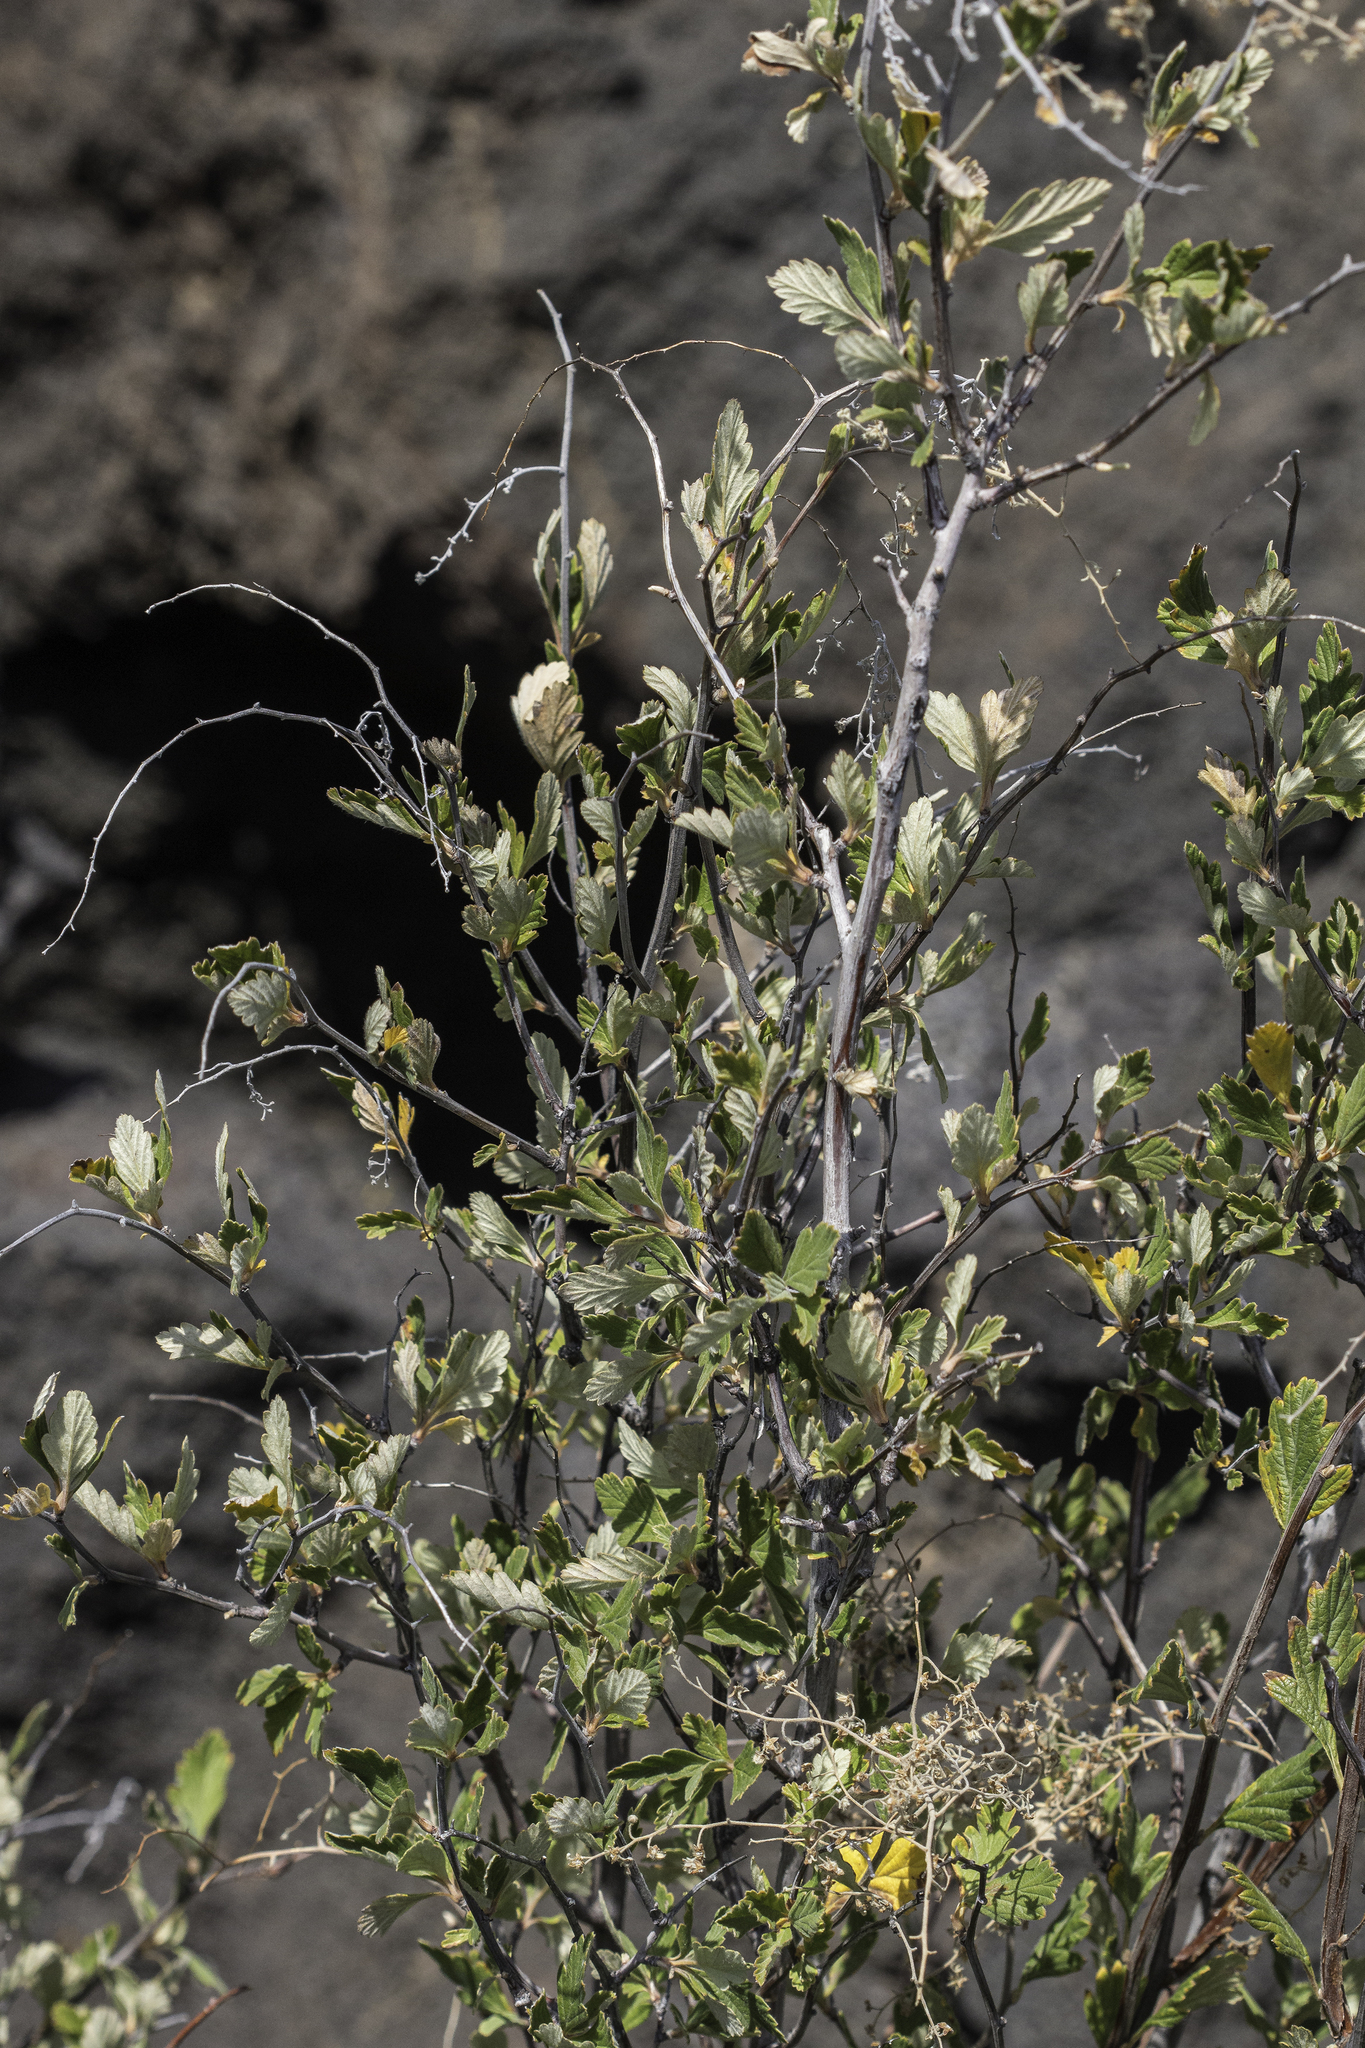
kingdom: Plantae
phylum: Tracheophyta
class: Magnoliopsida
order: Rosales
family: Rosaceae
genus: Holodiscus
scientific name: Holodiscus discolor
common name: Oceanspray
